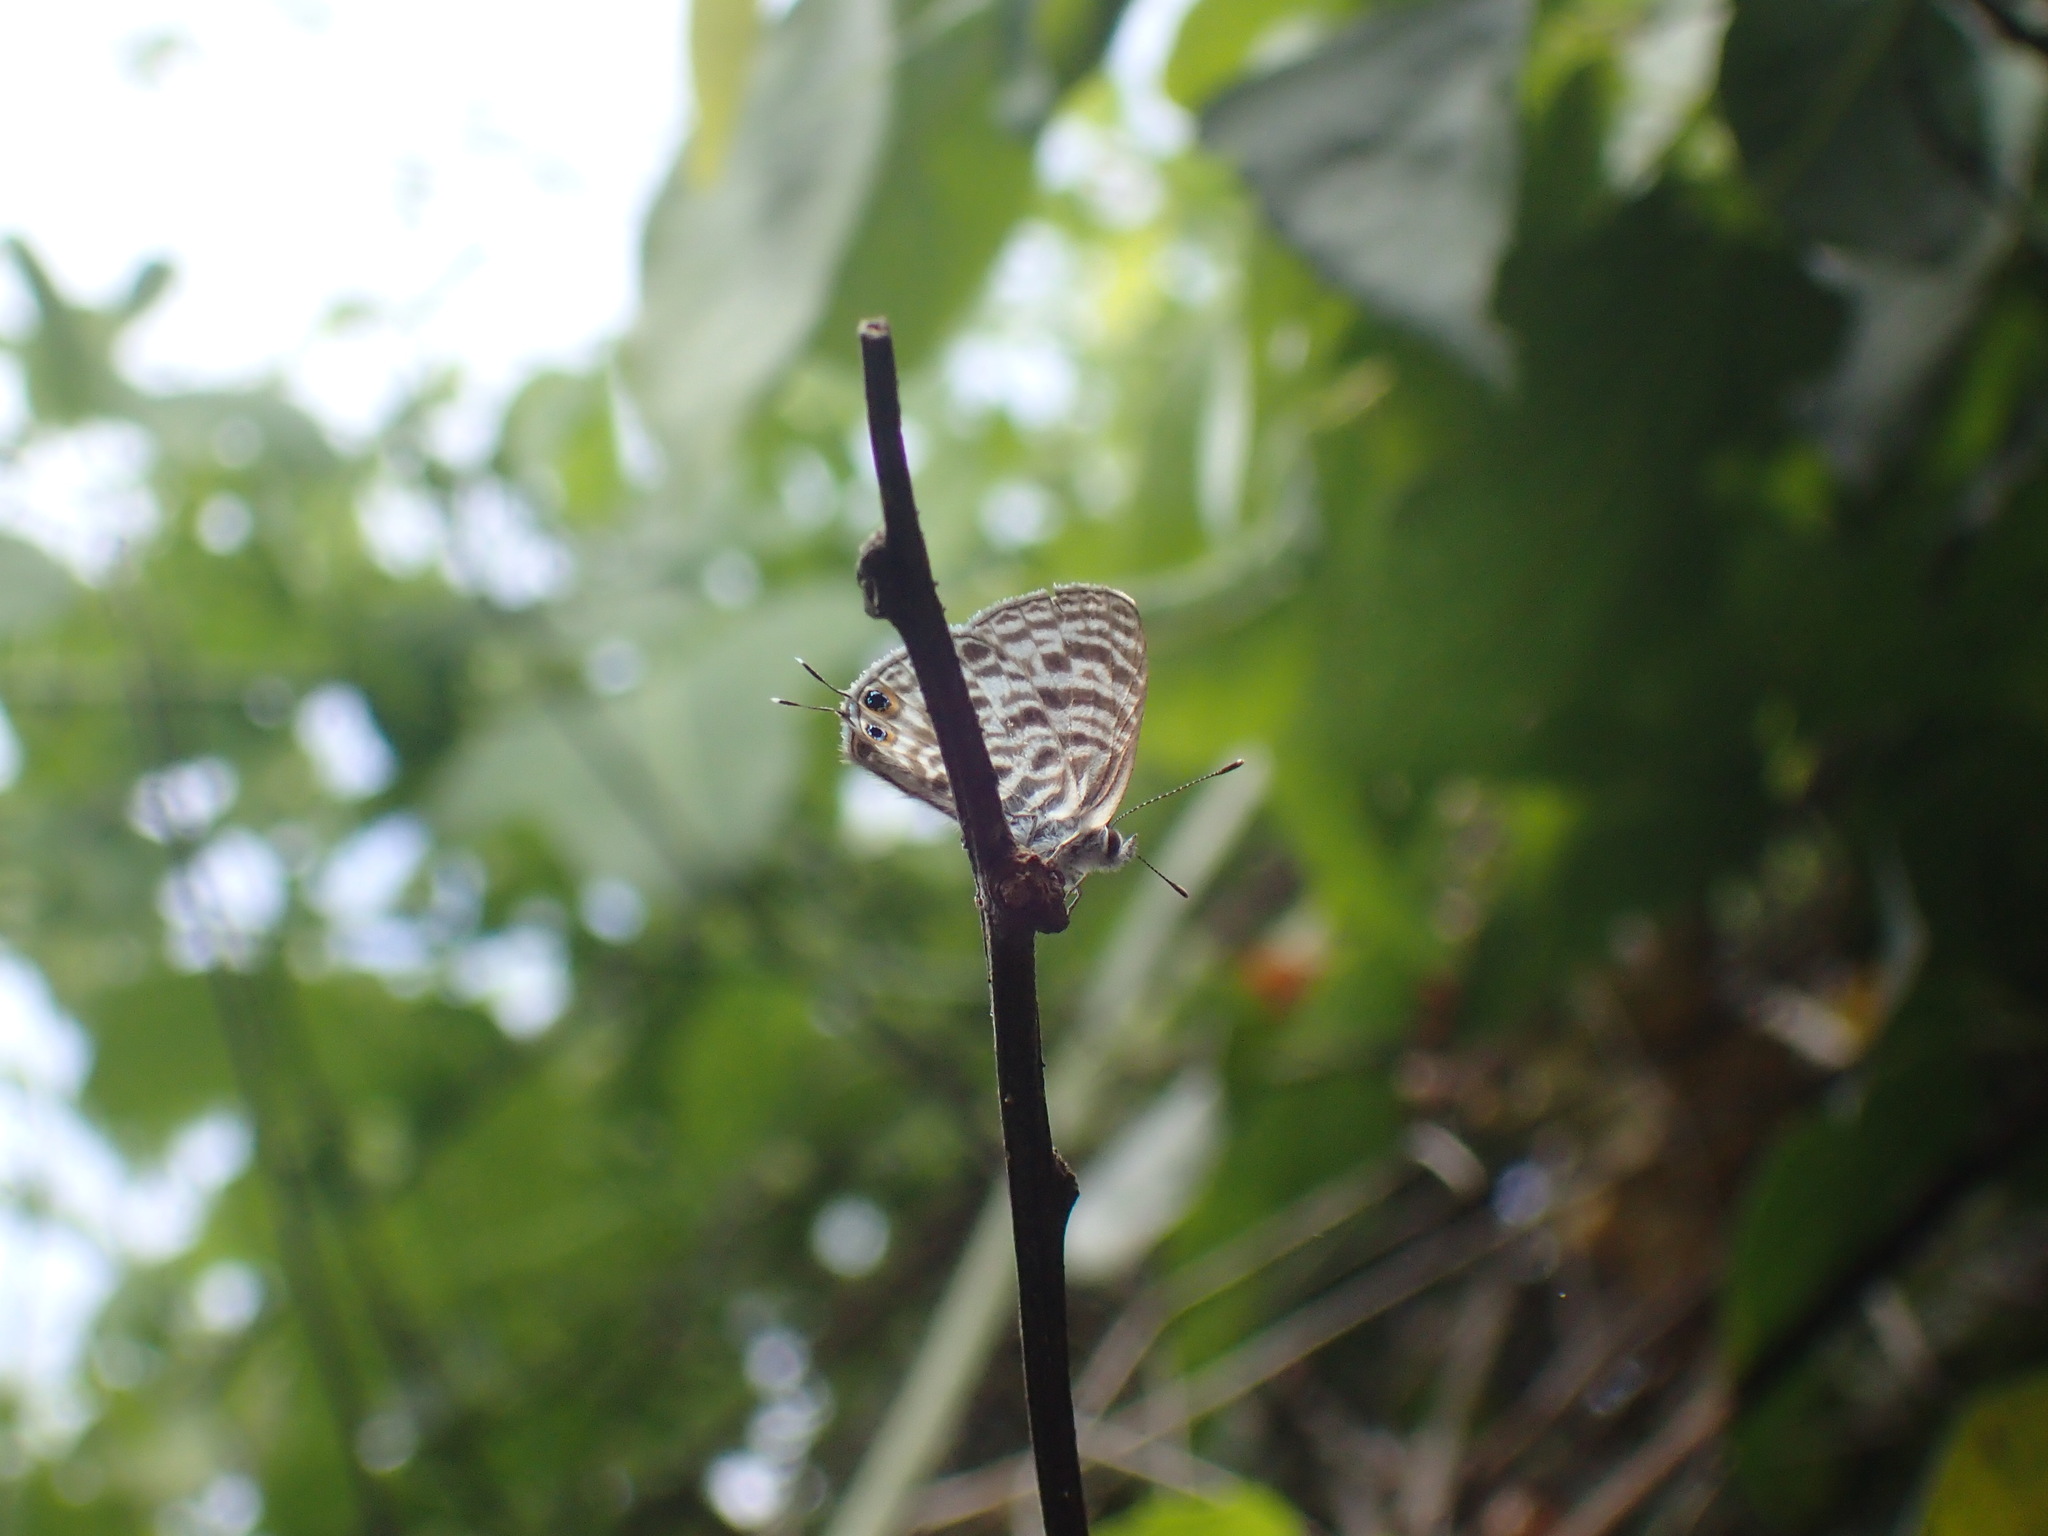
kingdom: Animalia
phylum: Arthropoda
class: Insecta
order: Lepidoptera
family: Lycaenidae
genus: Leptotes
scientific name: Leptotes
